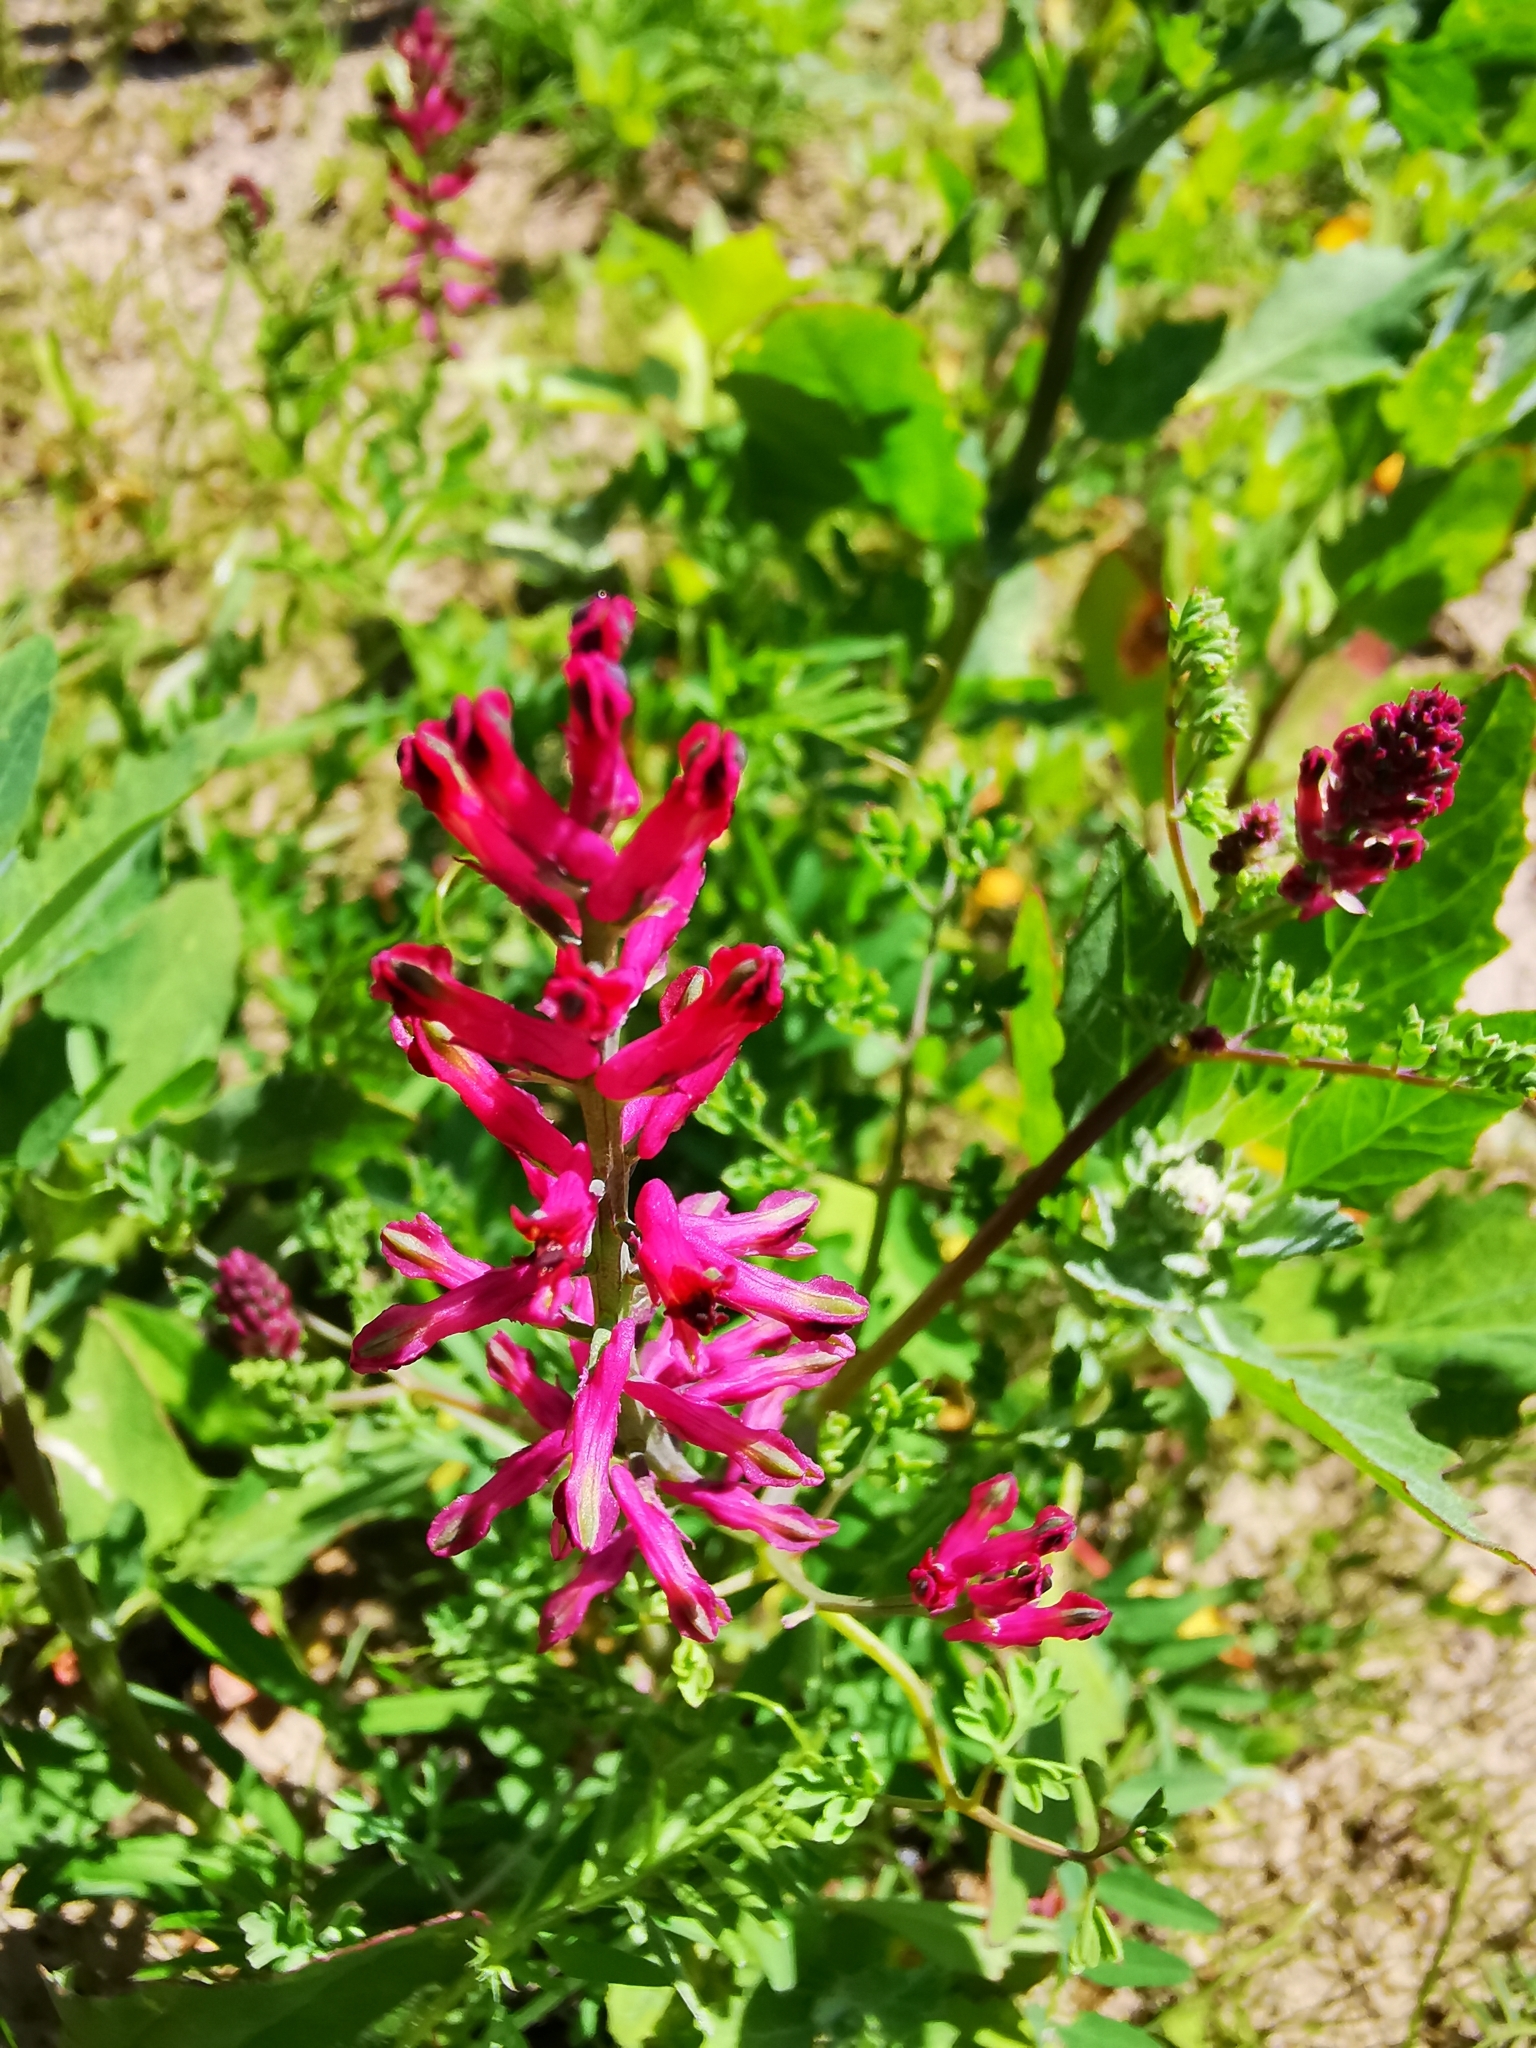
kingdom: Plantae
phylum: Tracheophyta
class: Magnoliopsida
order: Ranunculales
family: Papaveraceae
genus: Fumaria
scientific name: Fumaria officinalis
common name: Common fumitory
